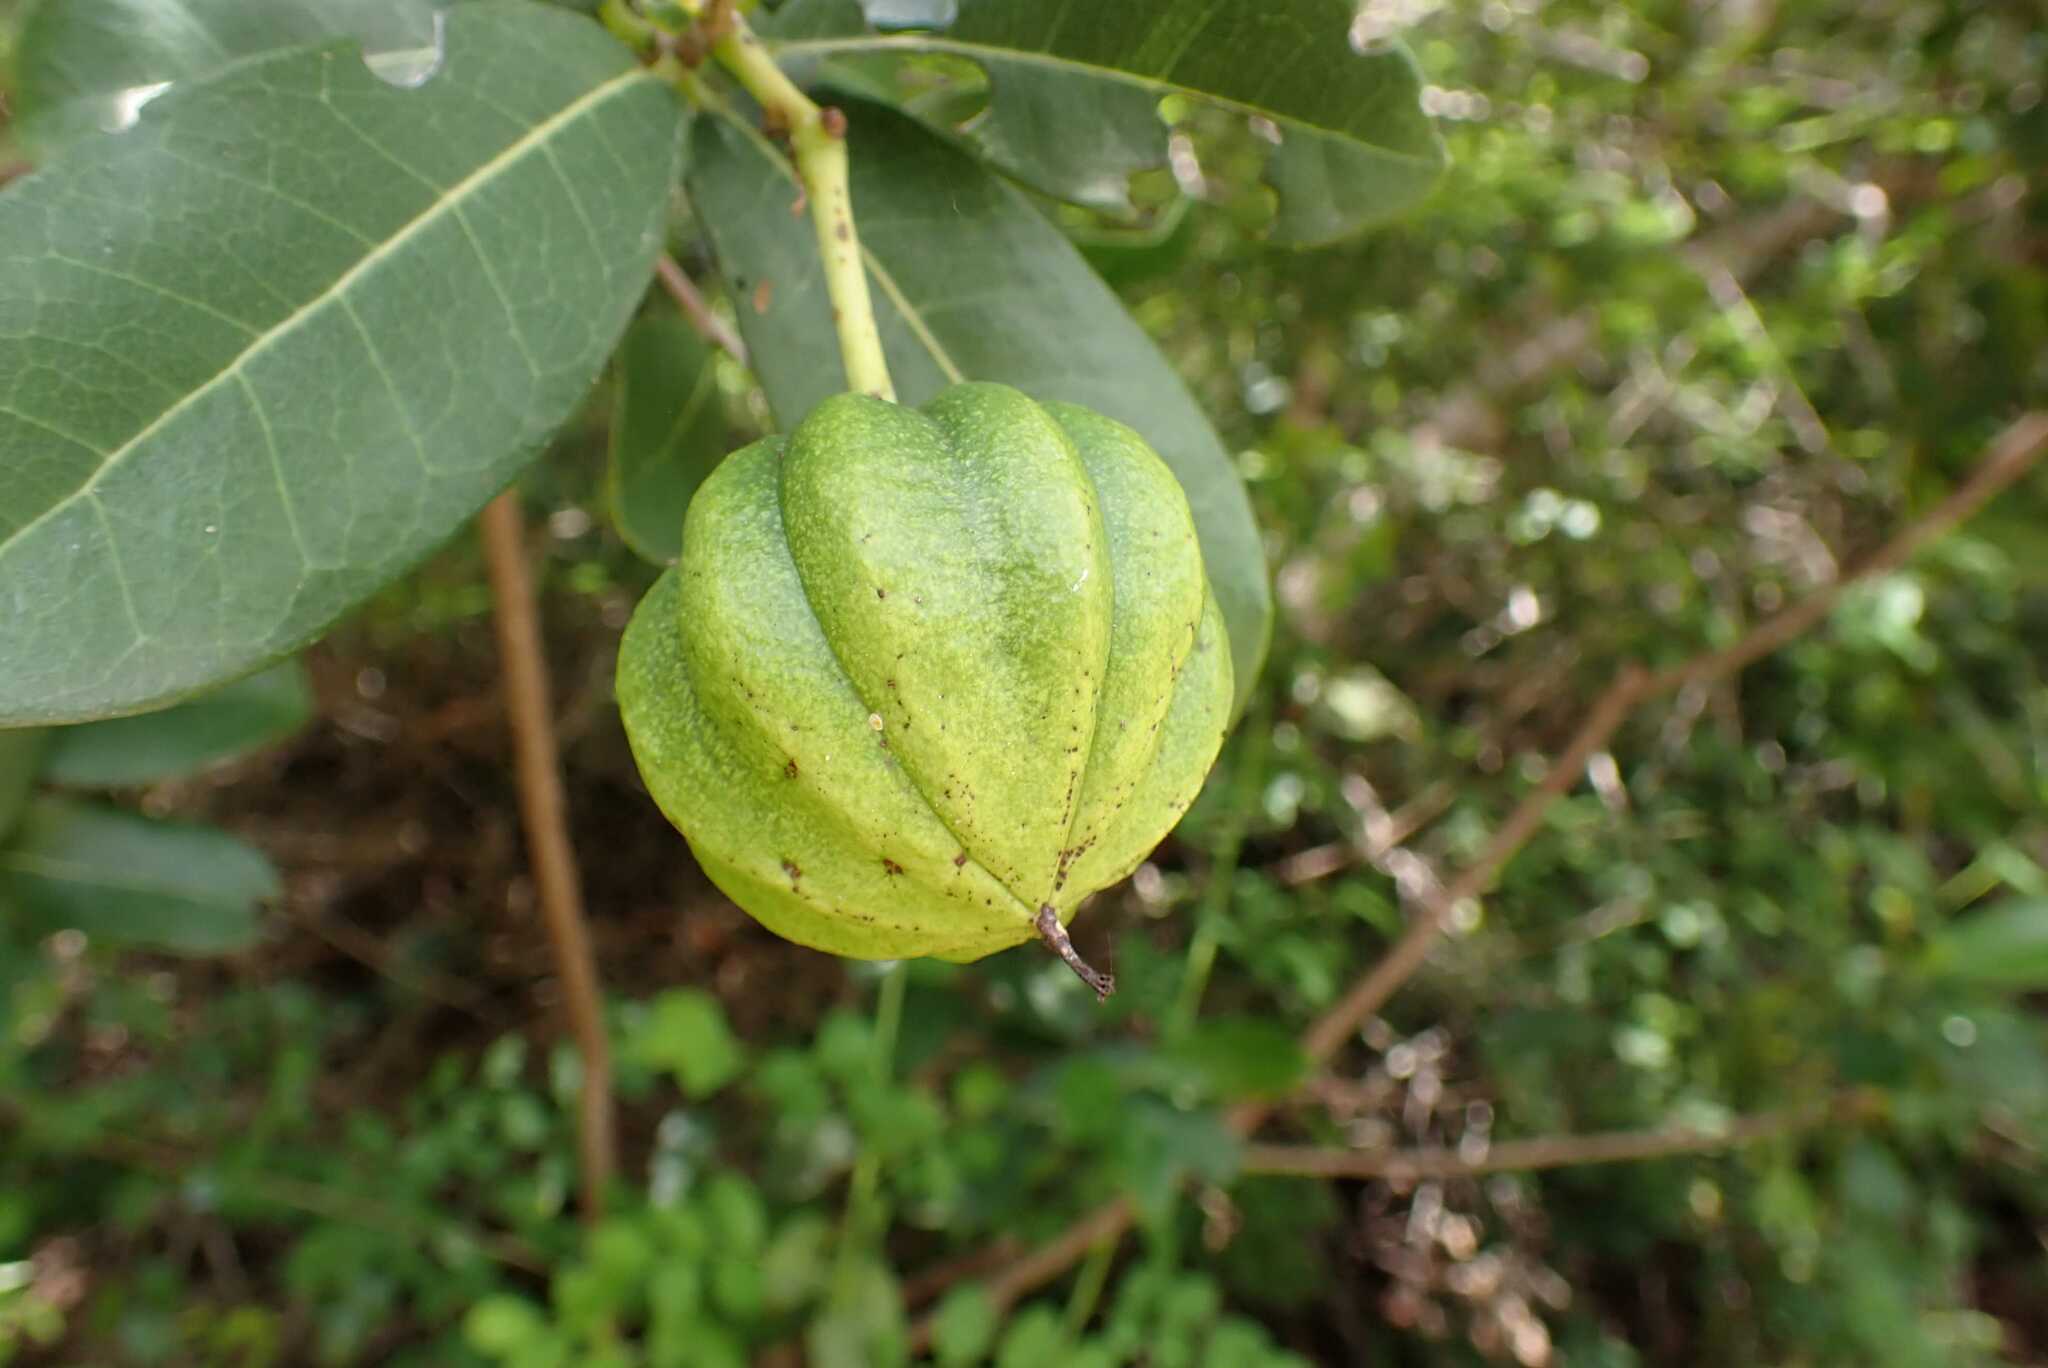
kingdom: Plantae
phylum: Tracheophyta
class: Magnoliopsida
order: Malpighiales
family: Achariaceae
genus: Xylotheca
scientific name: Xylotheca kraussiana
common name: African dog rose
